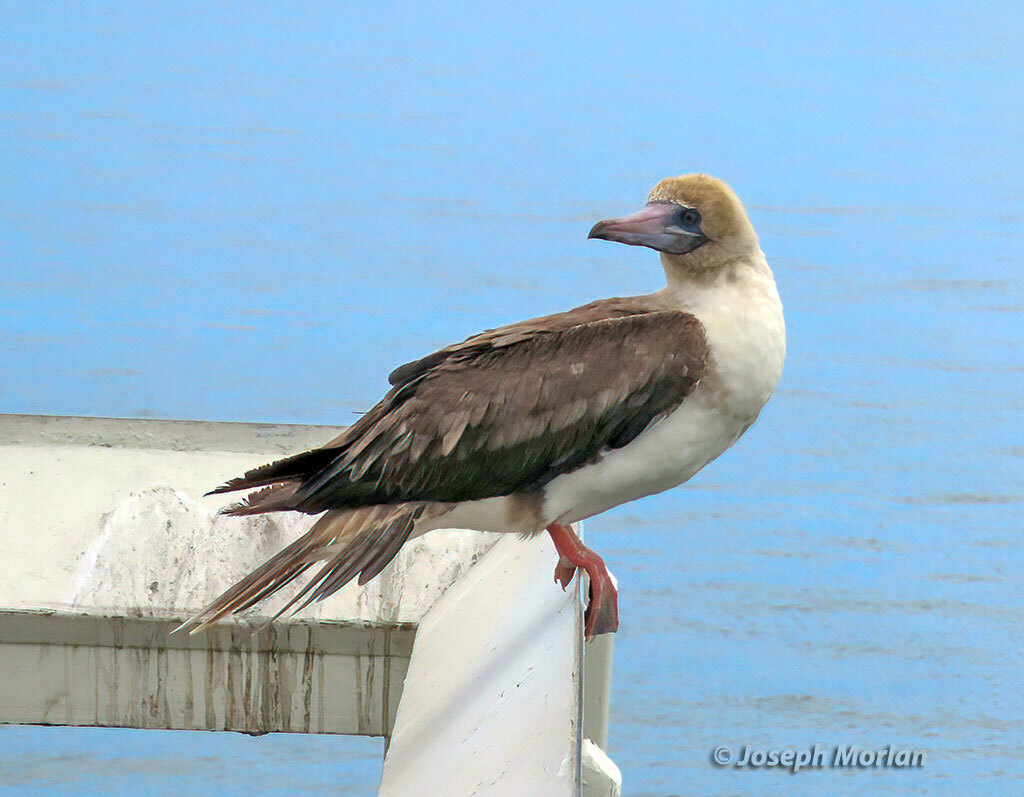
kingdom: Animalia
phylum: Chordata
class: Aves
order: Suliformes
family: Sulidae
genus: Sula
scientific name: Sula sula
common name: Red-footed booby
